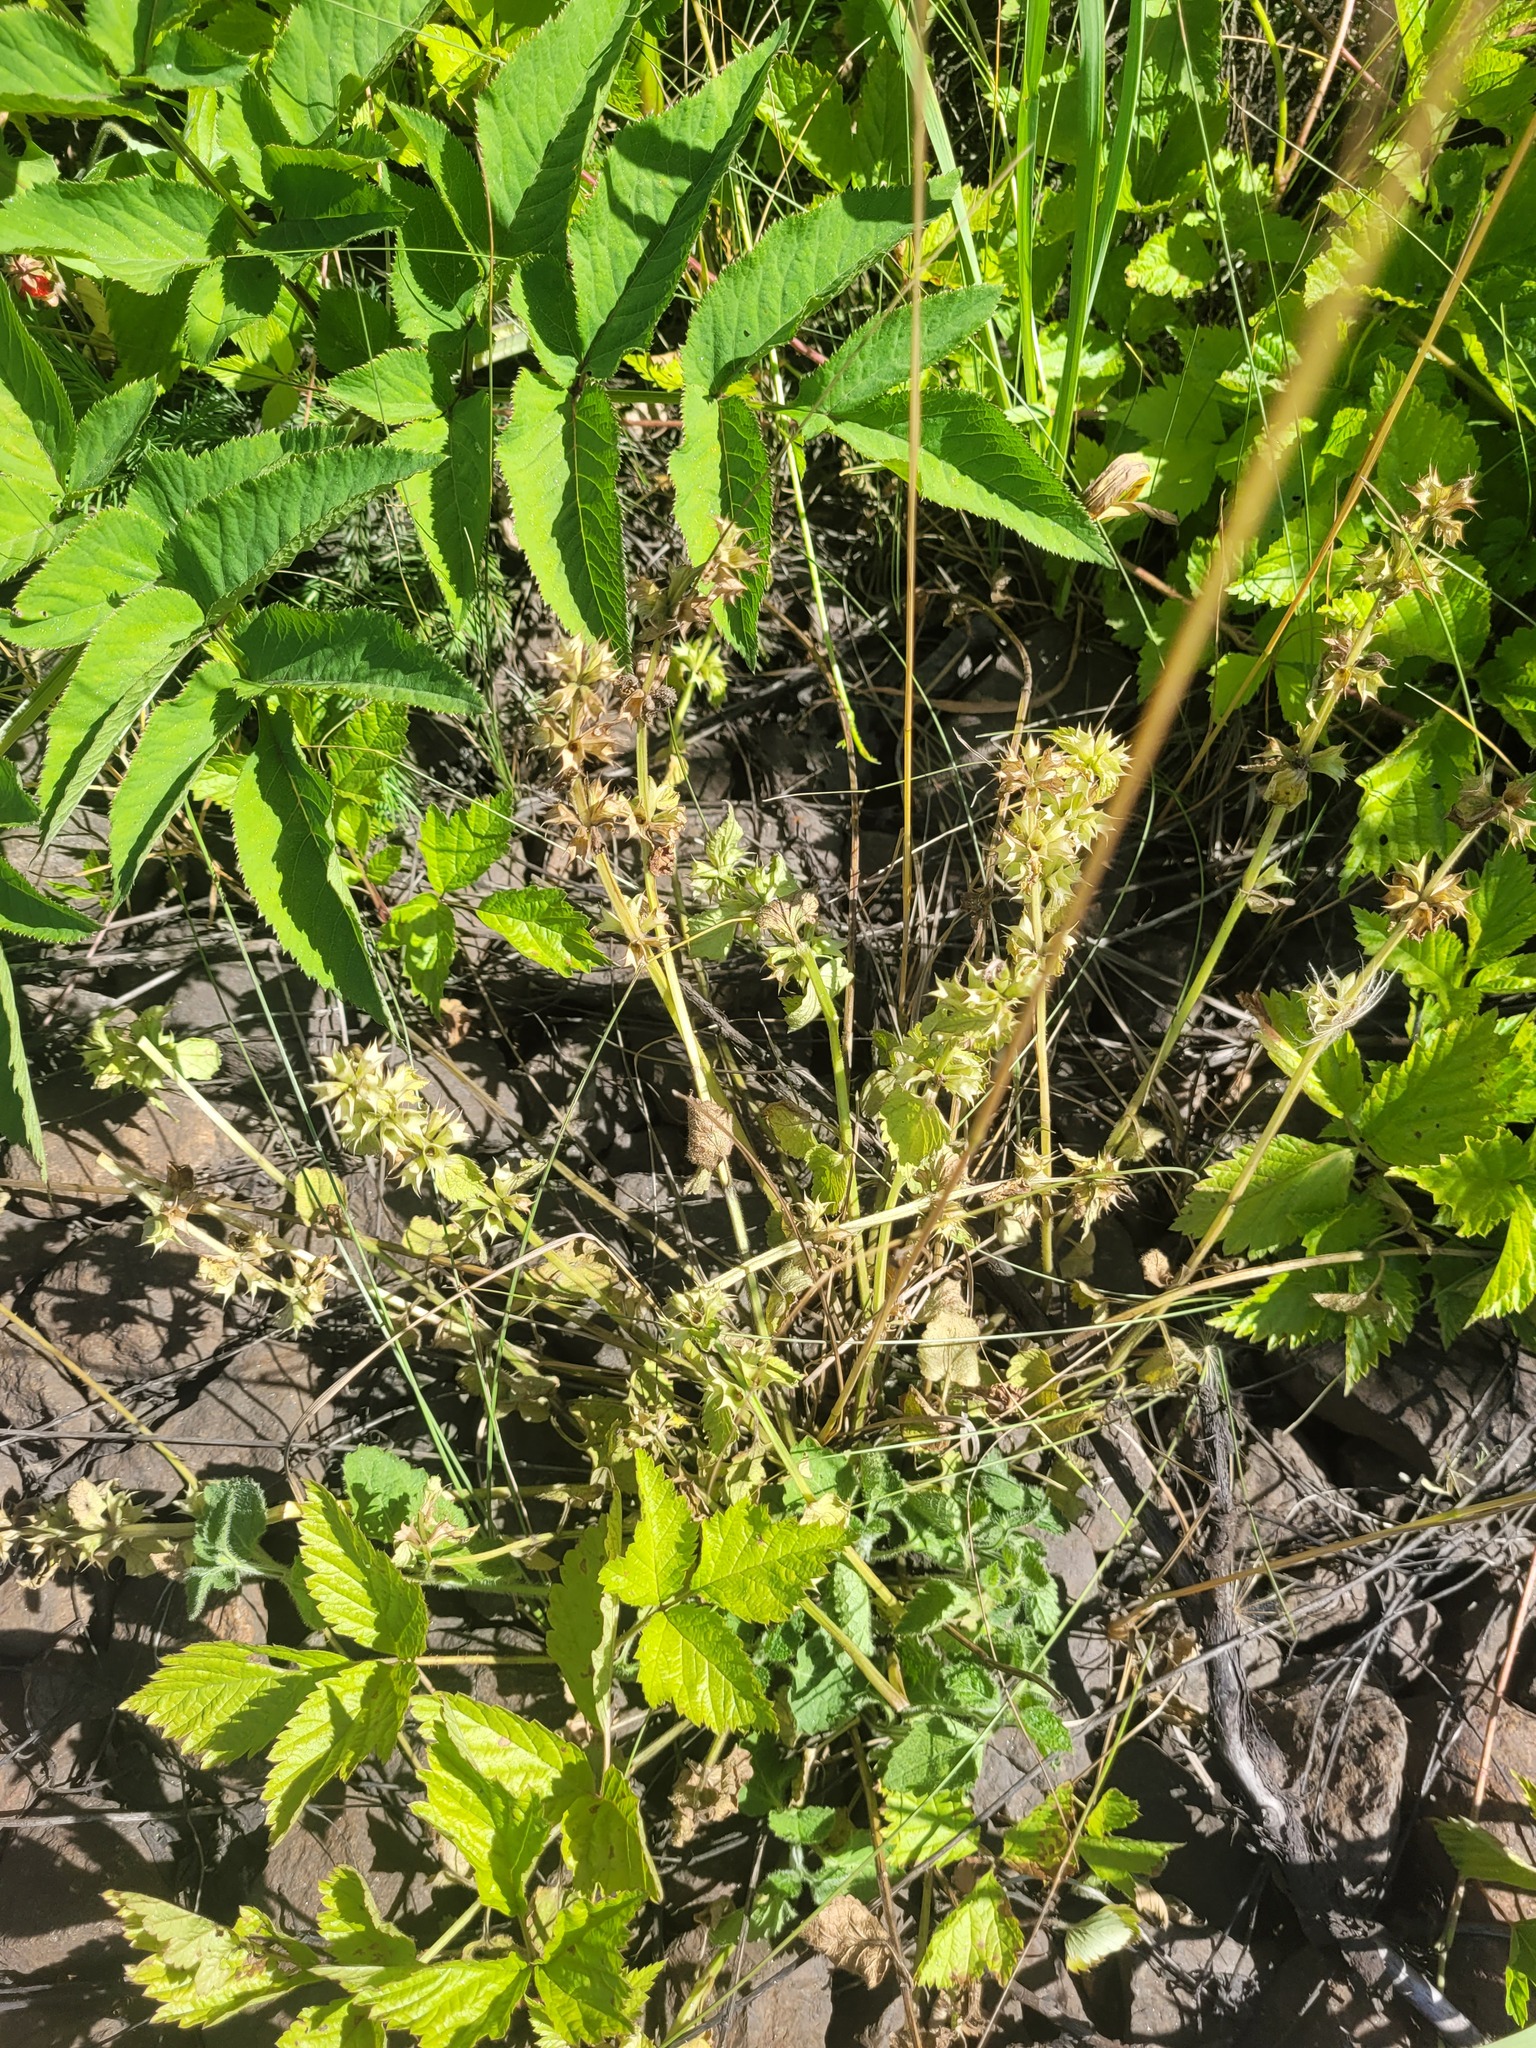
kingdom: Plantae
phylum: Tracheophyta
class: Magnoliopsida
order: Lamiales
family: Lamiaceae
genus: Lamium
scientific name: Lamium galeobdolon
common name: Yellow archangel
